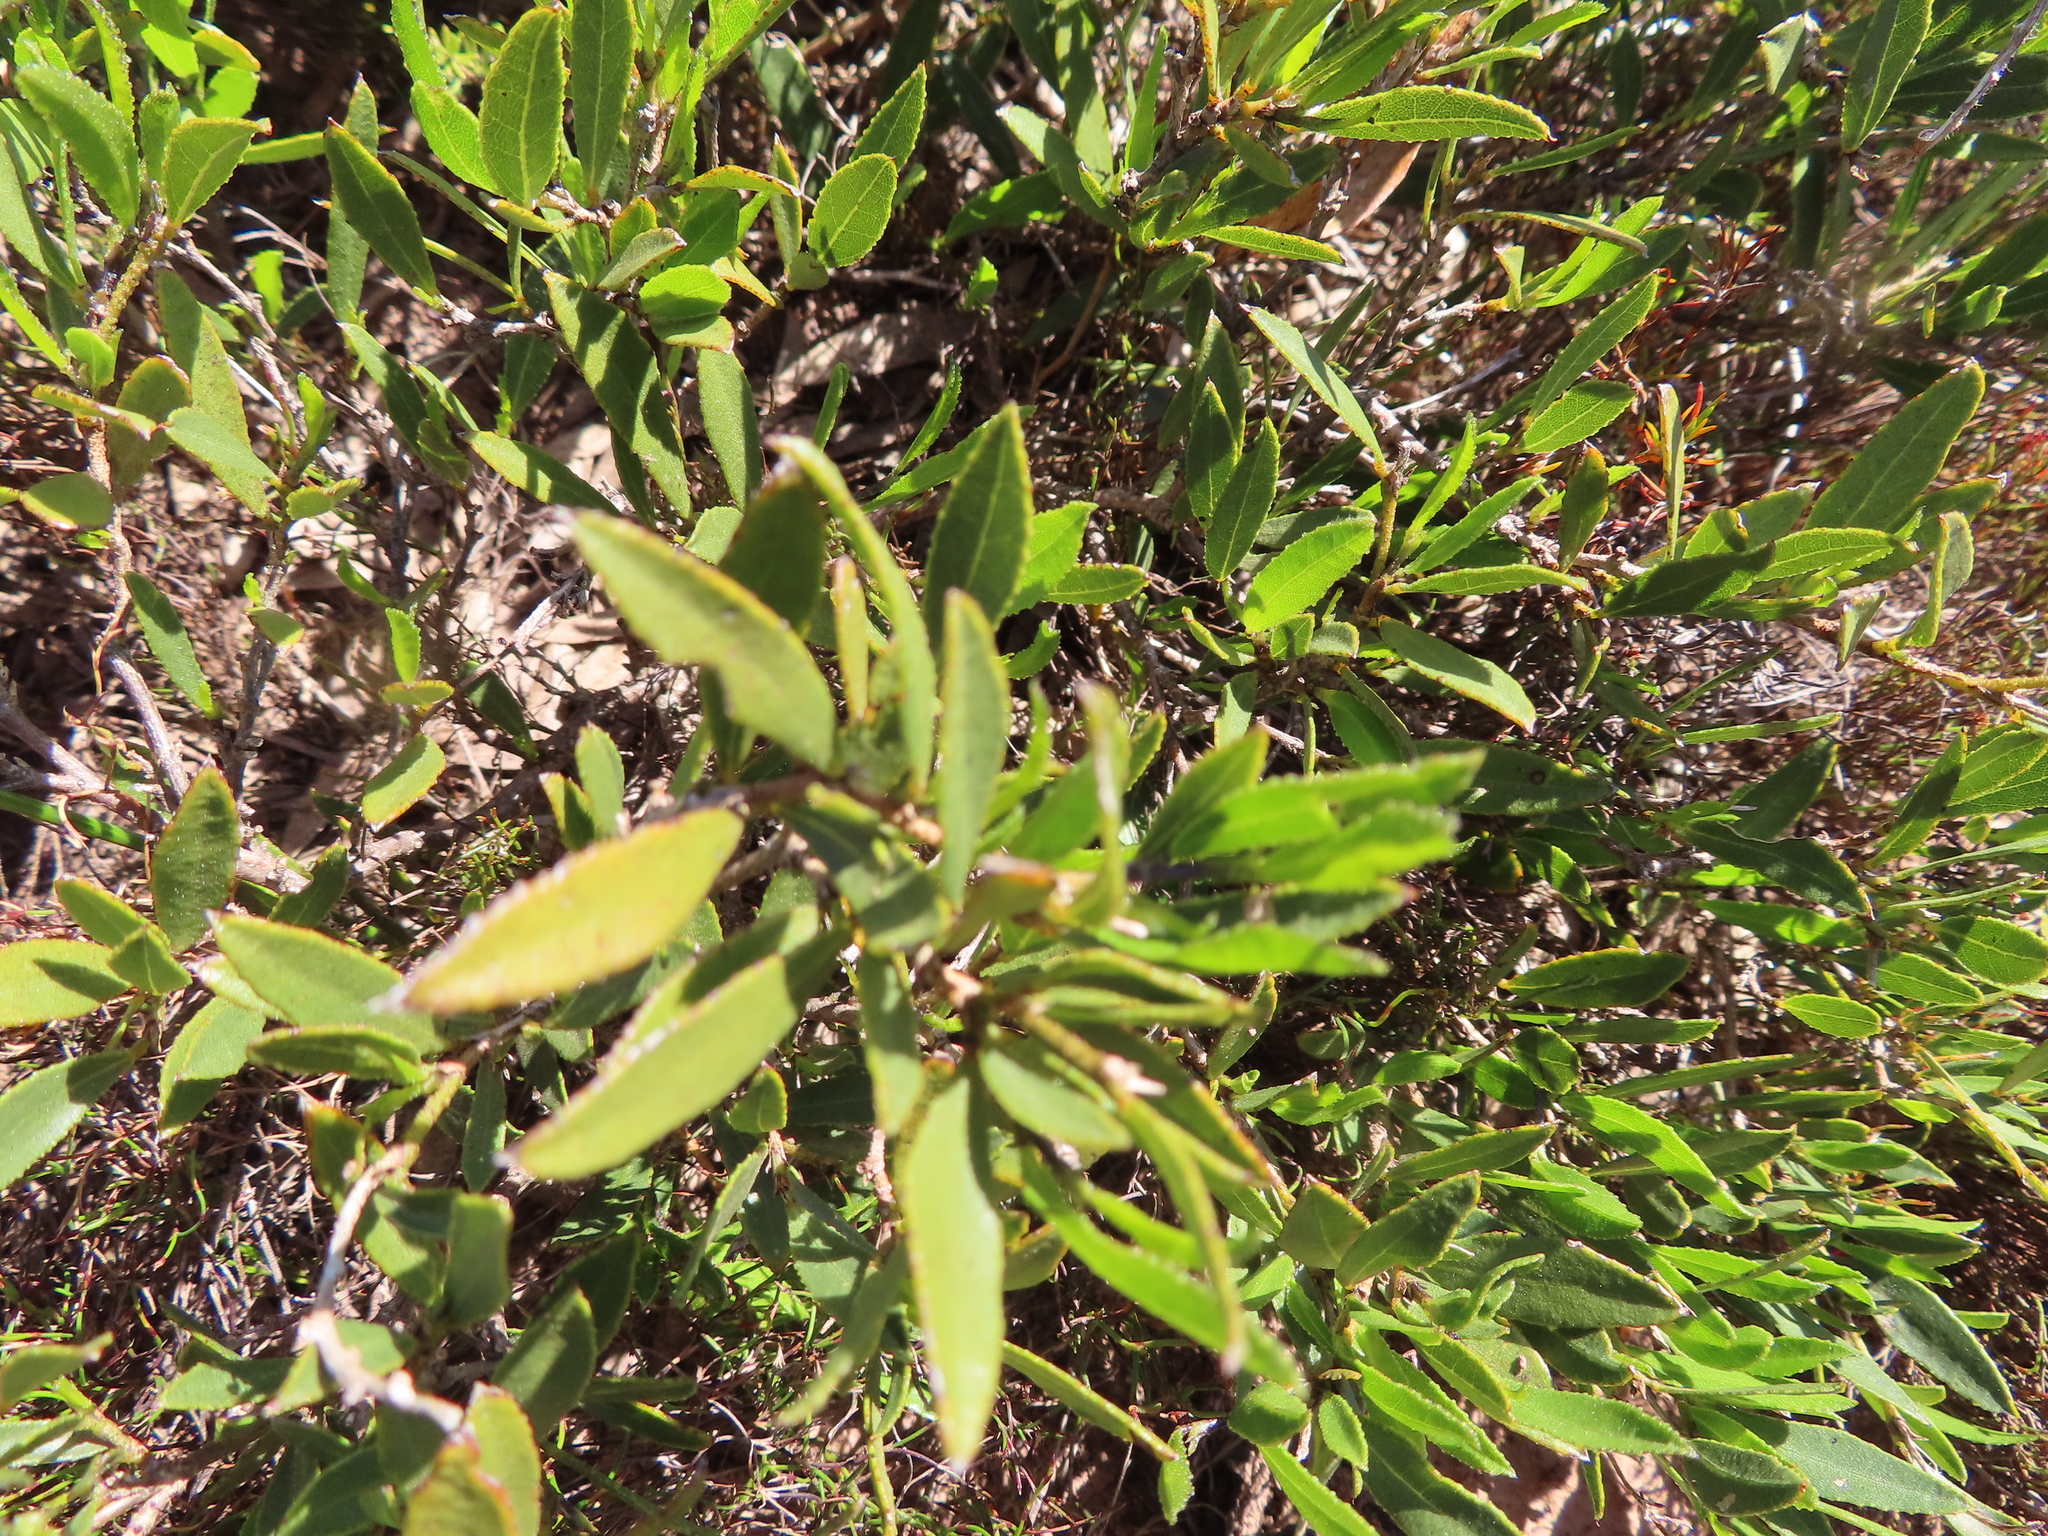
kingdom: Plantae
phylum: Tracheophyta
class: Magnoliopsida
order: Fabales
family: Fabaceae
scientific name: Fabaceae
